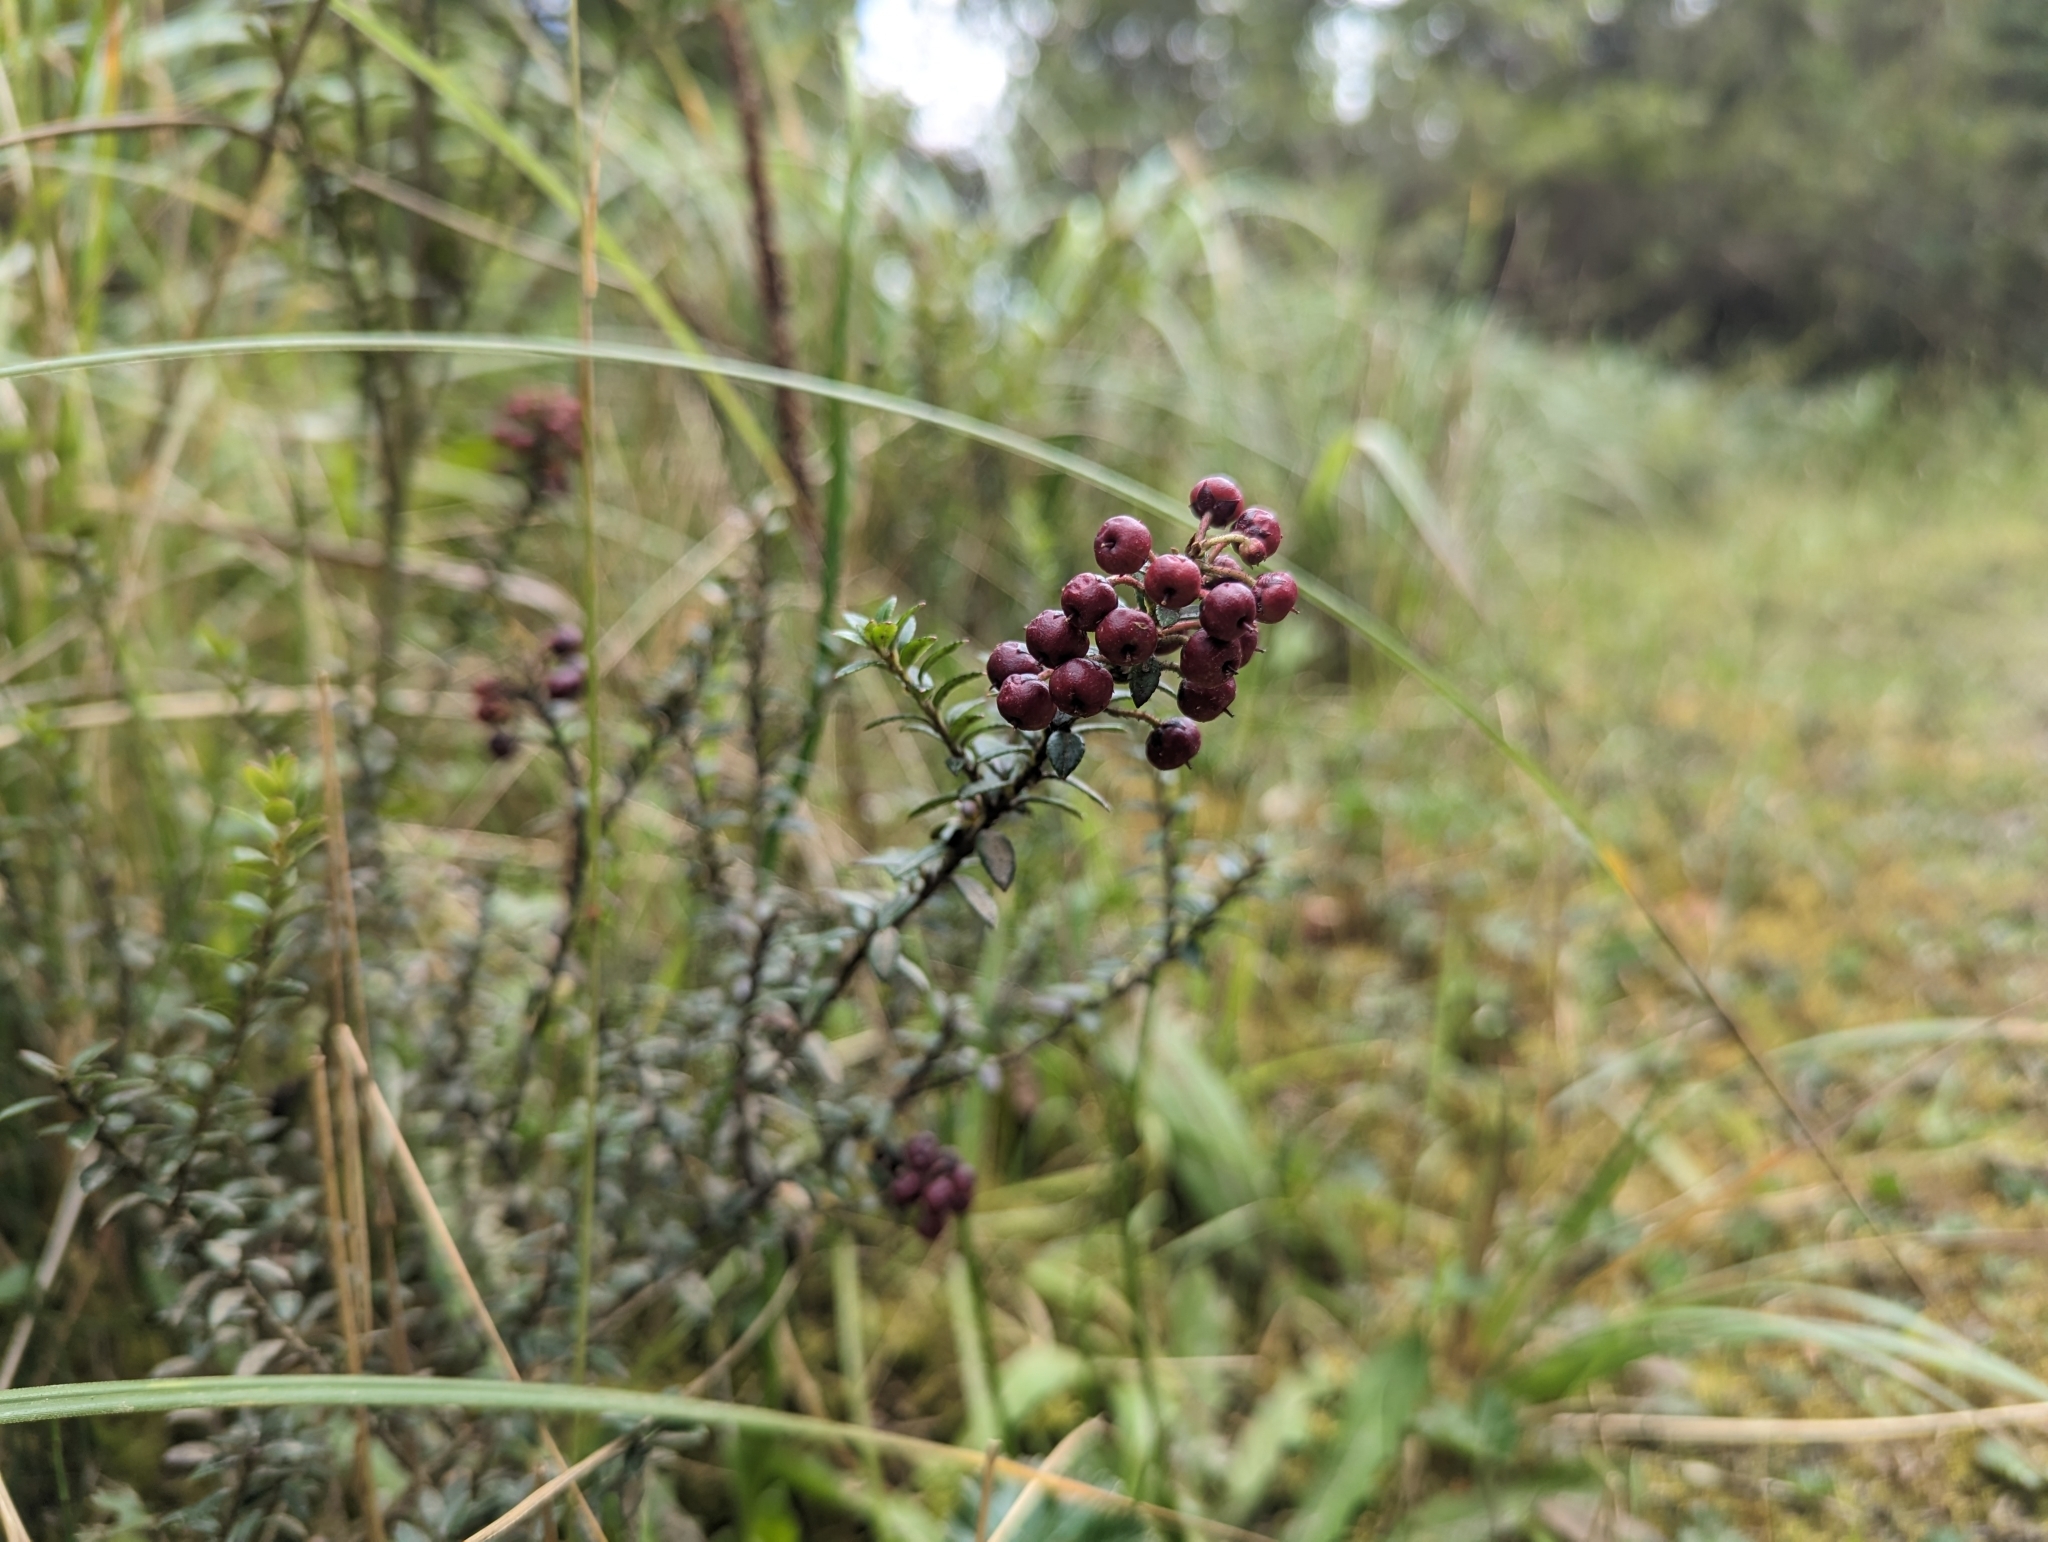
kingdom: Plantae
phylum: Tracheophyta
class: Magnoliopsida
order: Ericales
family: Ericaceae
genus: Gaultheria
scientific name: Gaultheria myrsinoides
